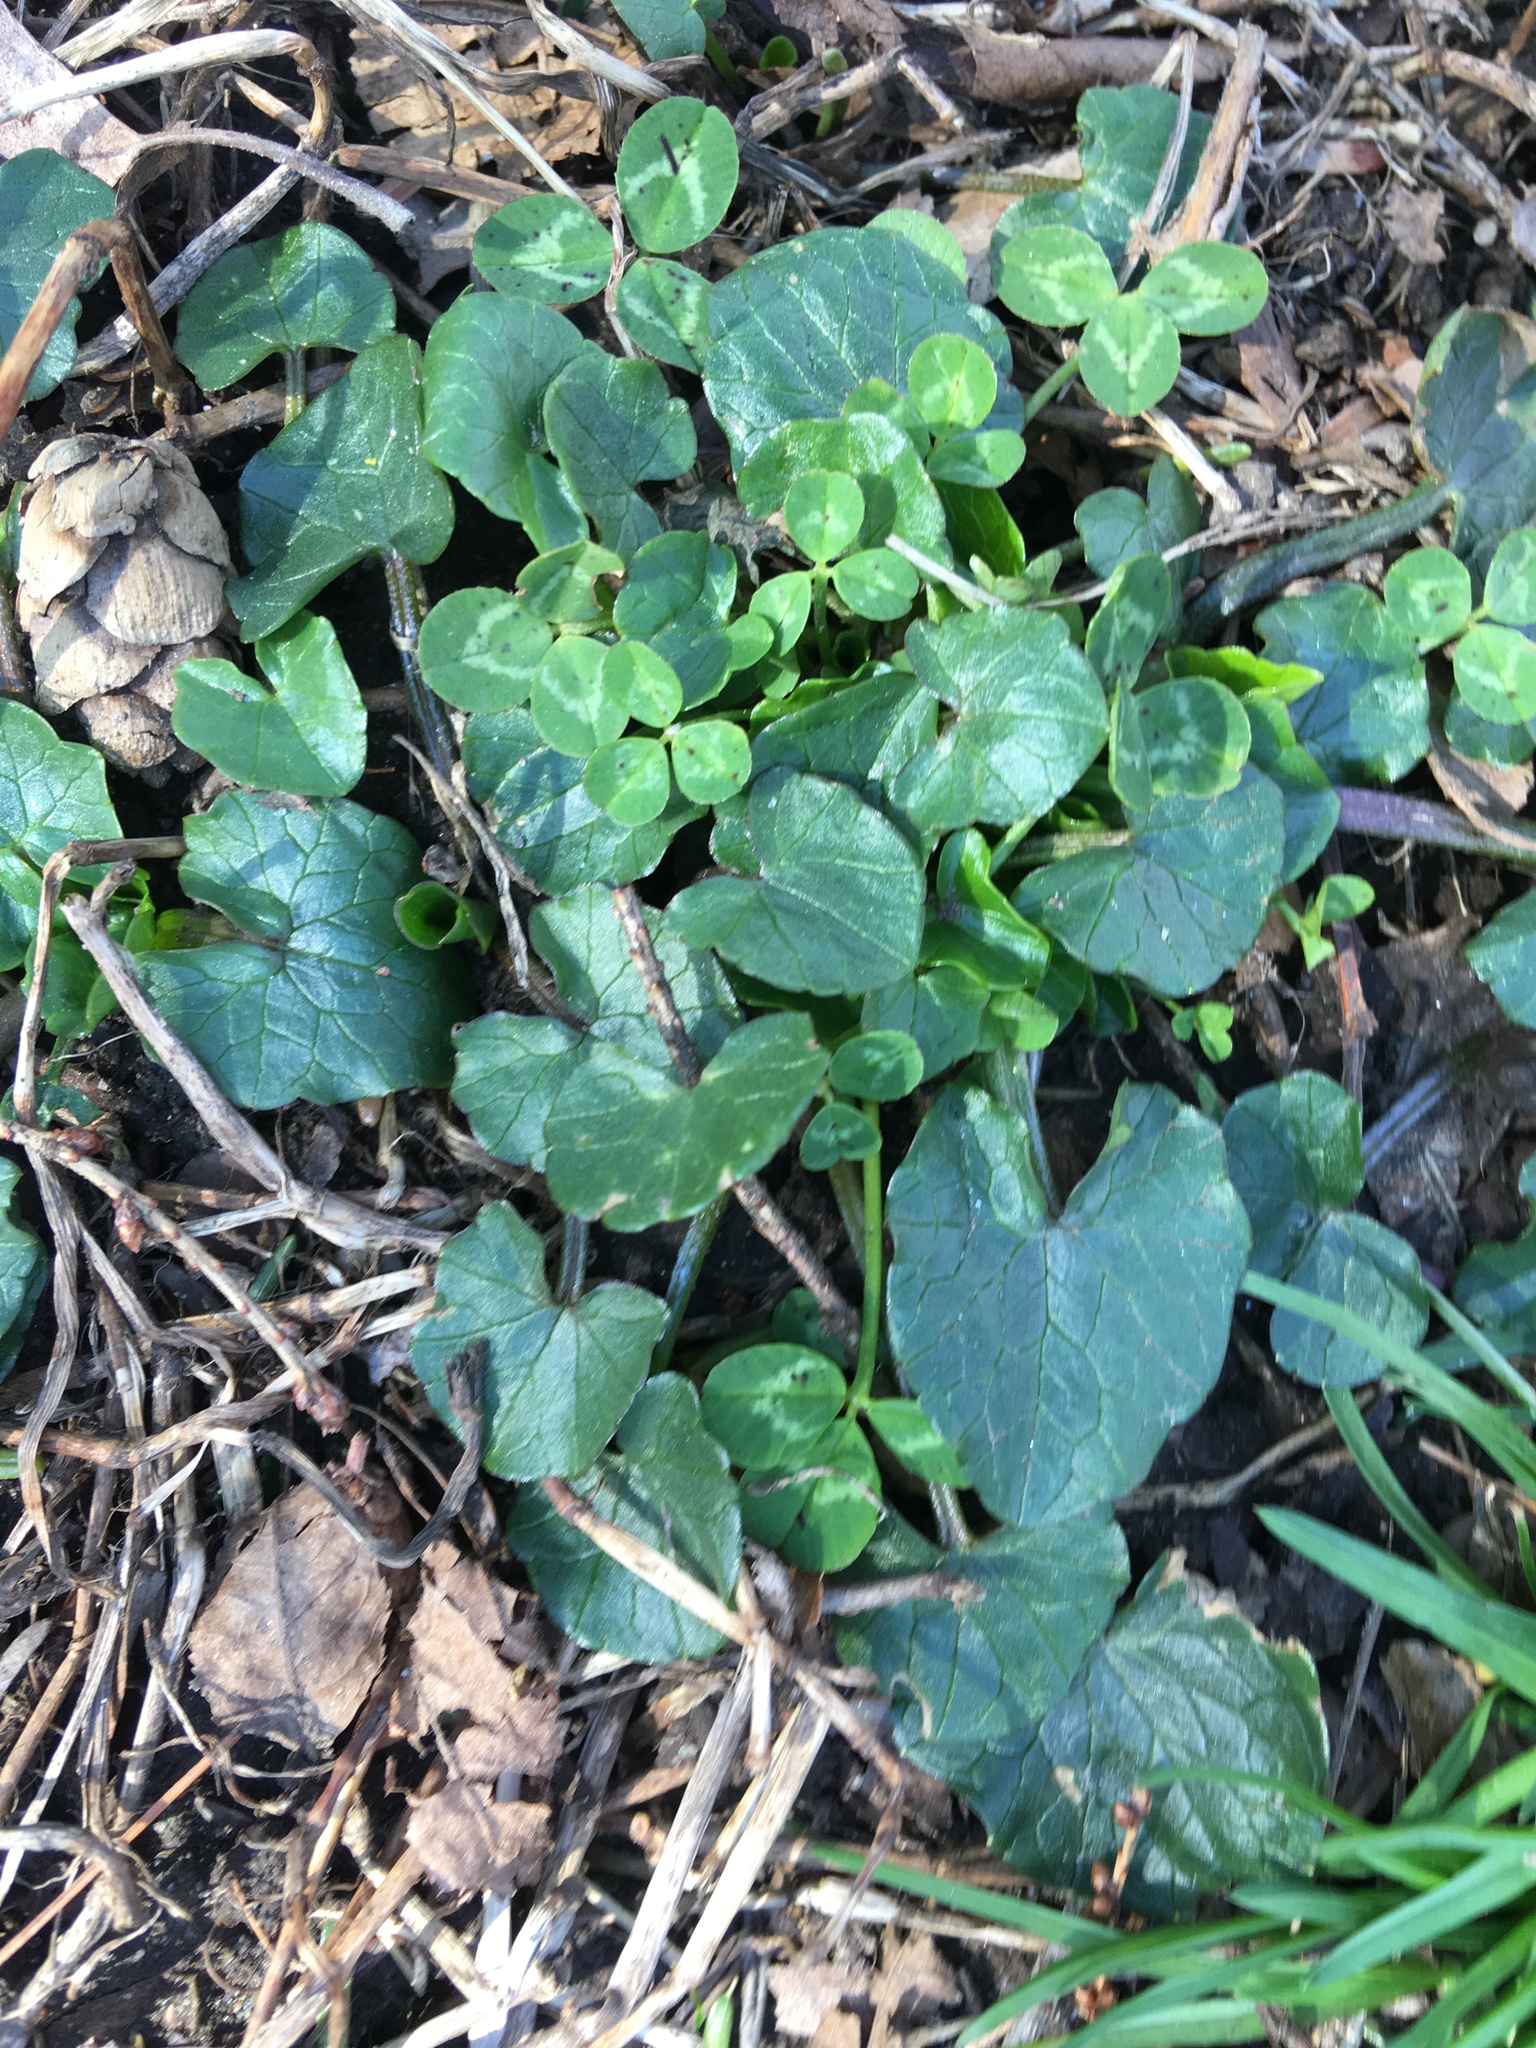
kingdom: Plantae
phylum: Tracheophyta
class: Magnoliopsida
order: Ranunculales
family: Ranunculaceae
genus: Ficaria
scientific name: Ficaria verna
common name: Lesser celandine
